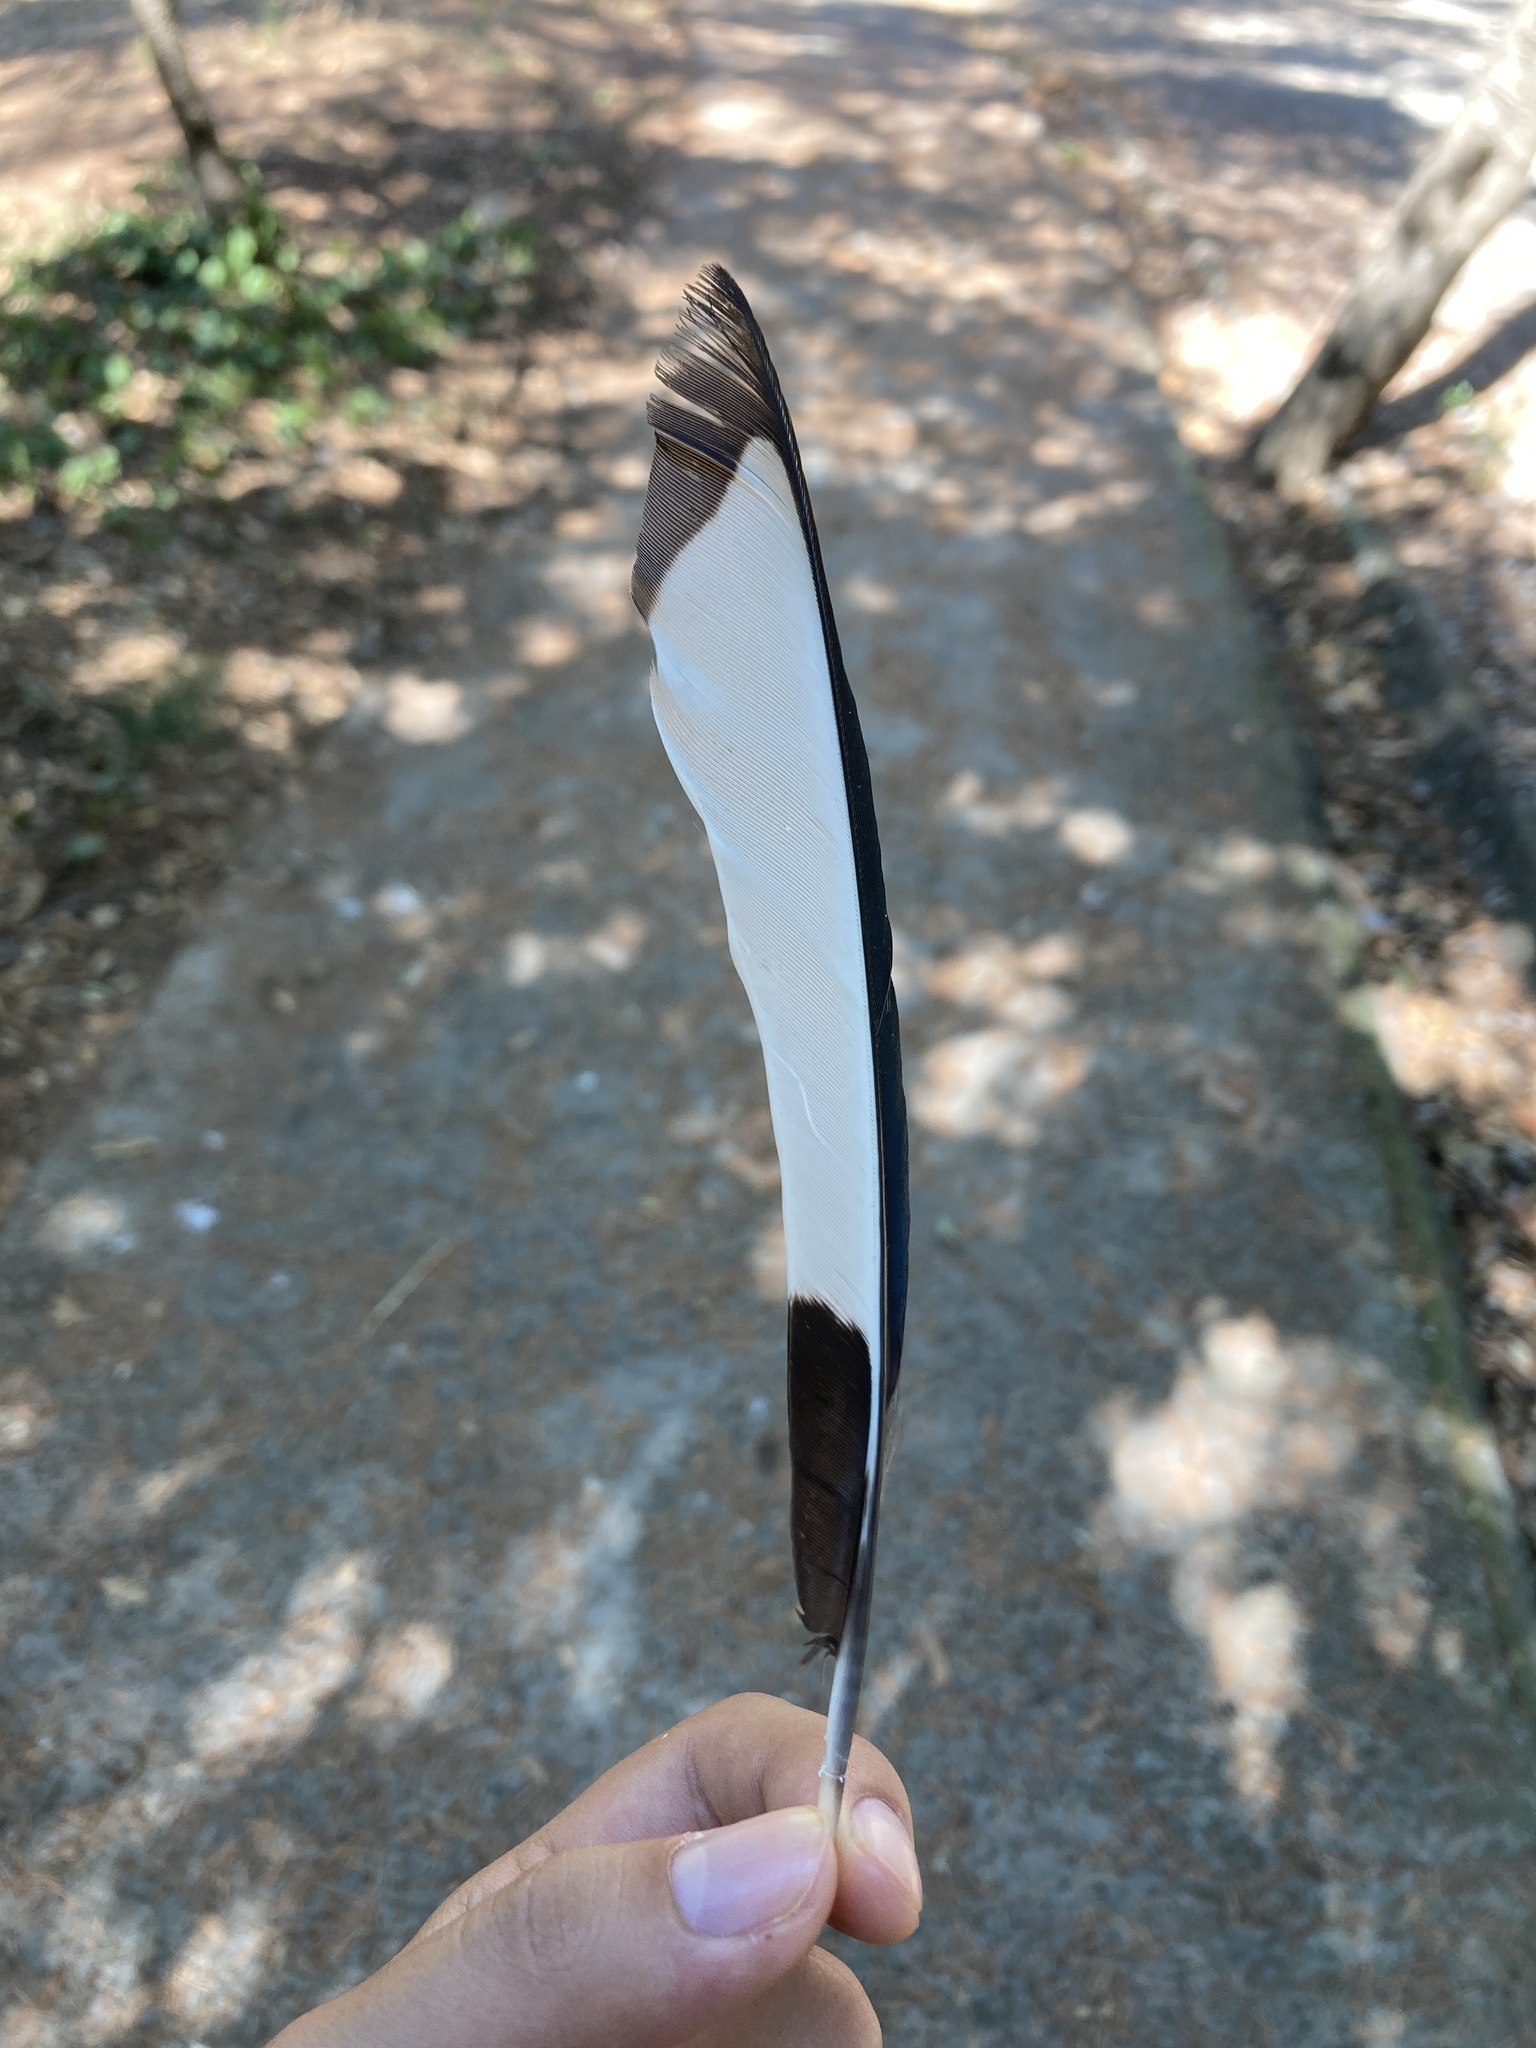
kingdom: Animalia
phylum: Chordata
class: Aves
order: Passeriformes
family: Corvidae
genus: Pica
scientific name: Pica pica
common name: Eurasian magpie
